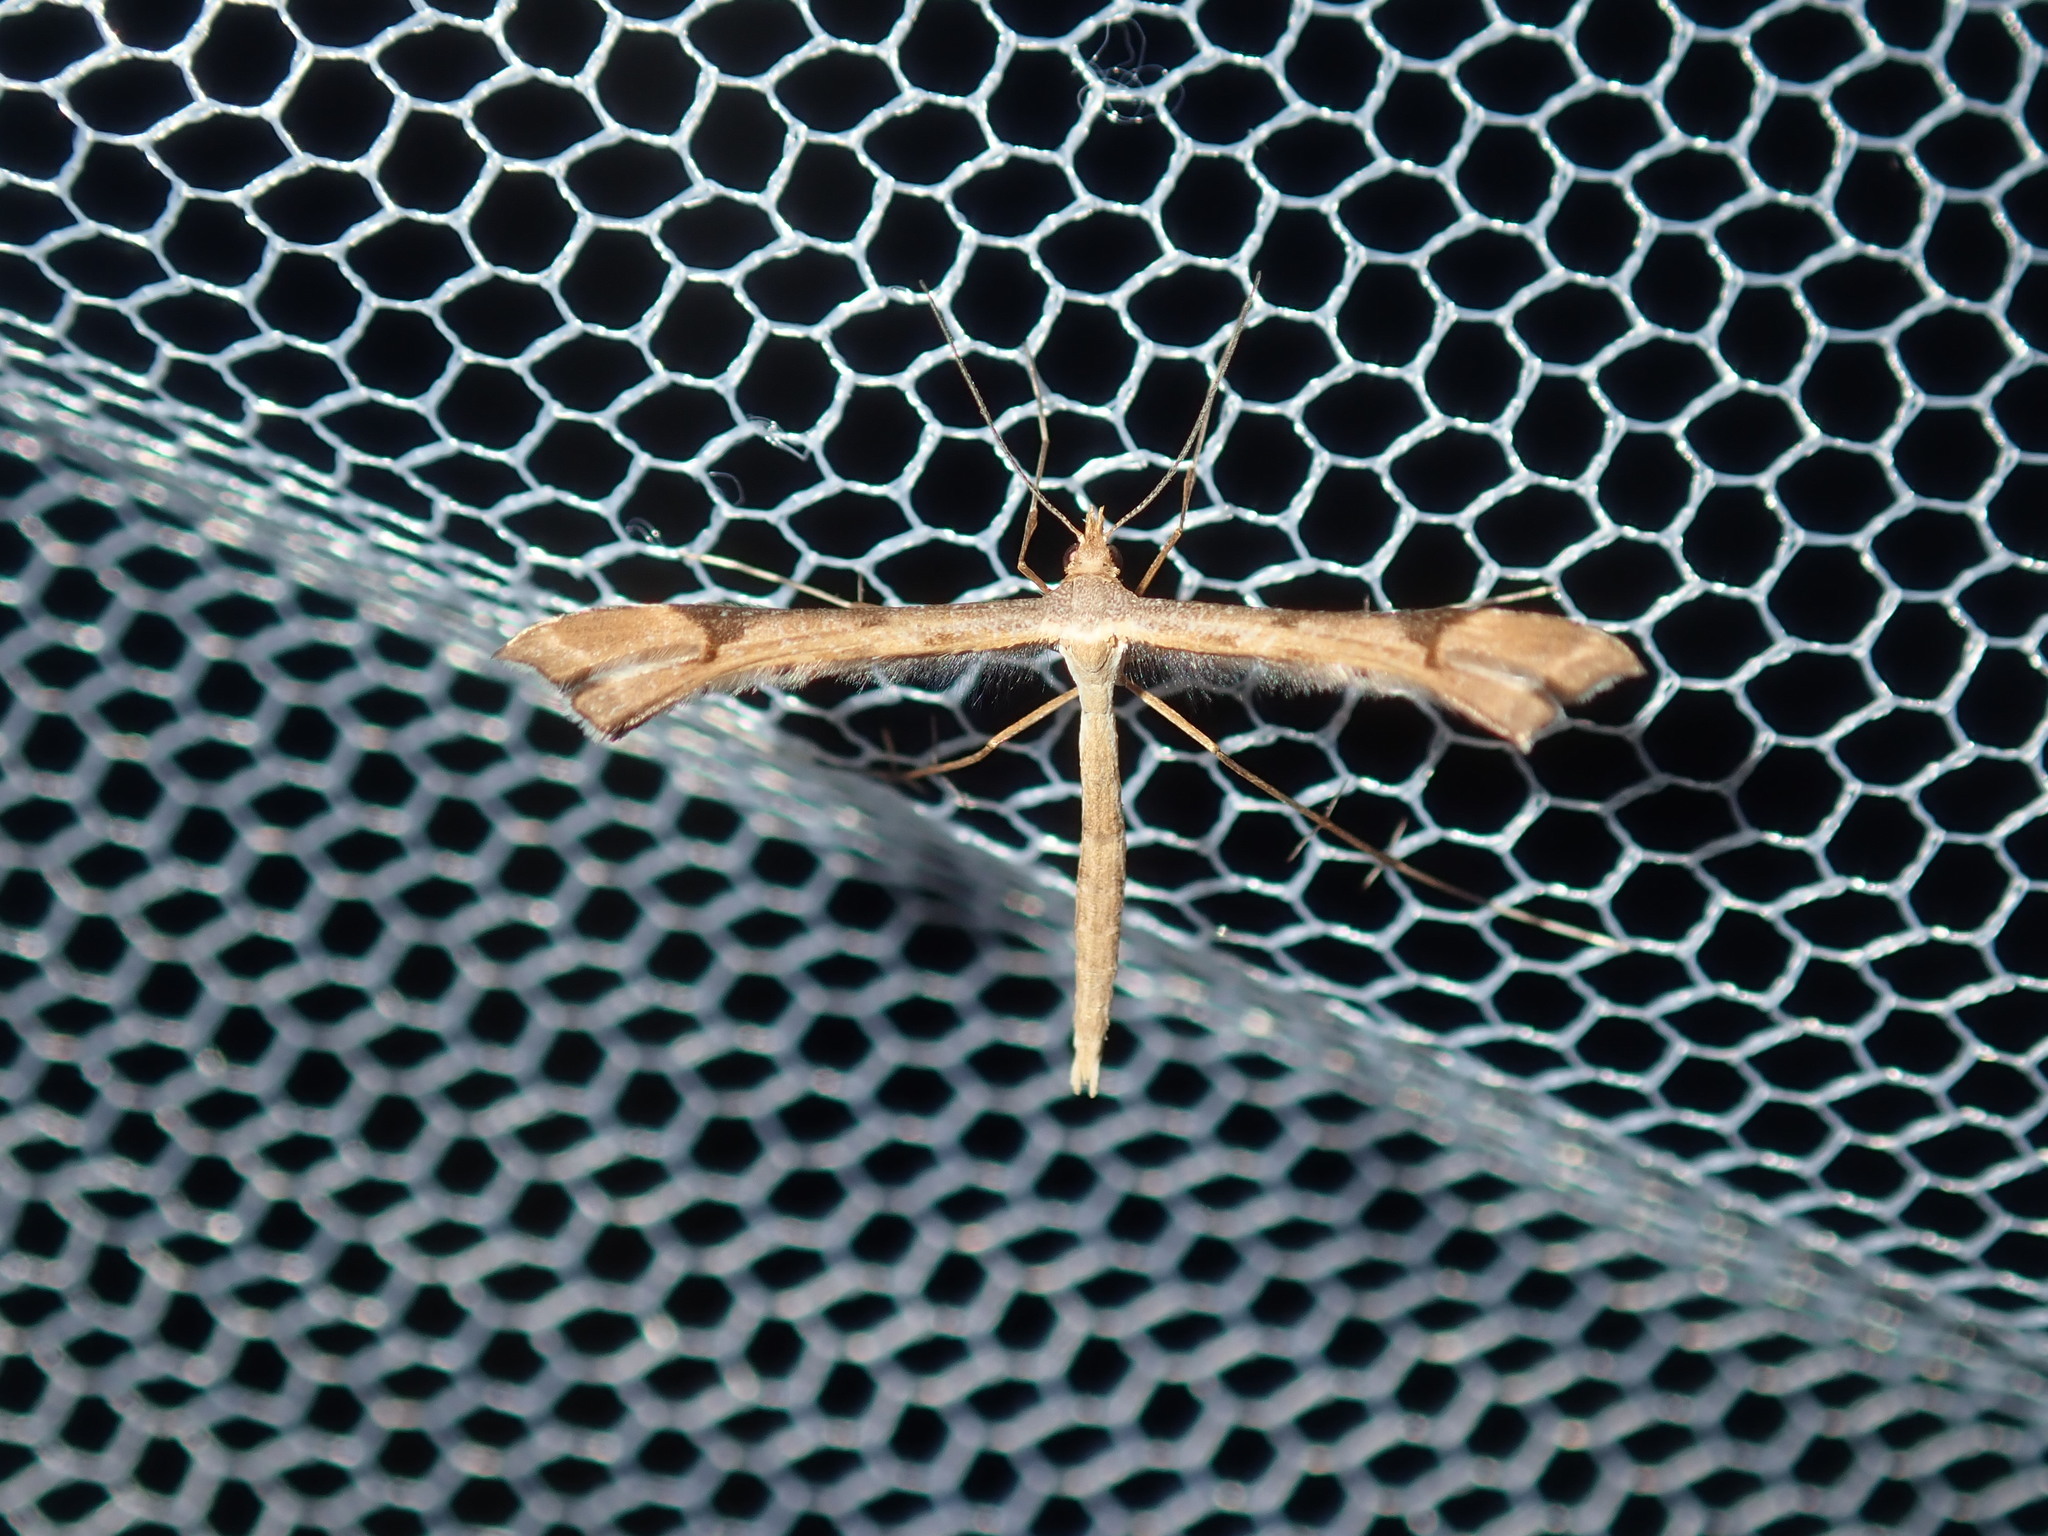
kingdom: Animalia
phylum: Arthropoda
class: Insecta
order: Lepidoptera
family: Pterophoridae
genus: Sinpunctiptilia
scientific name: Sinpunctiptilia emissalis
